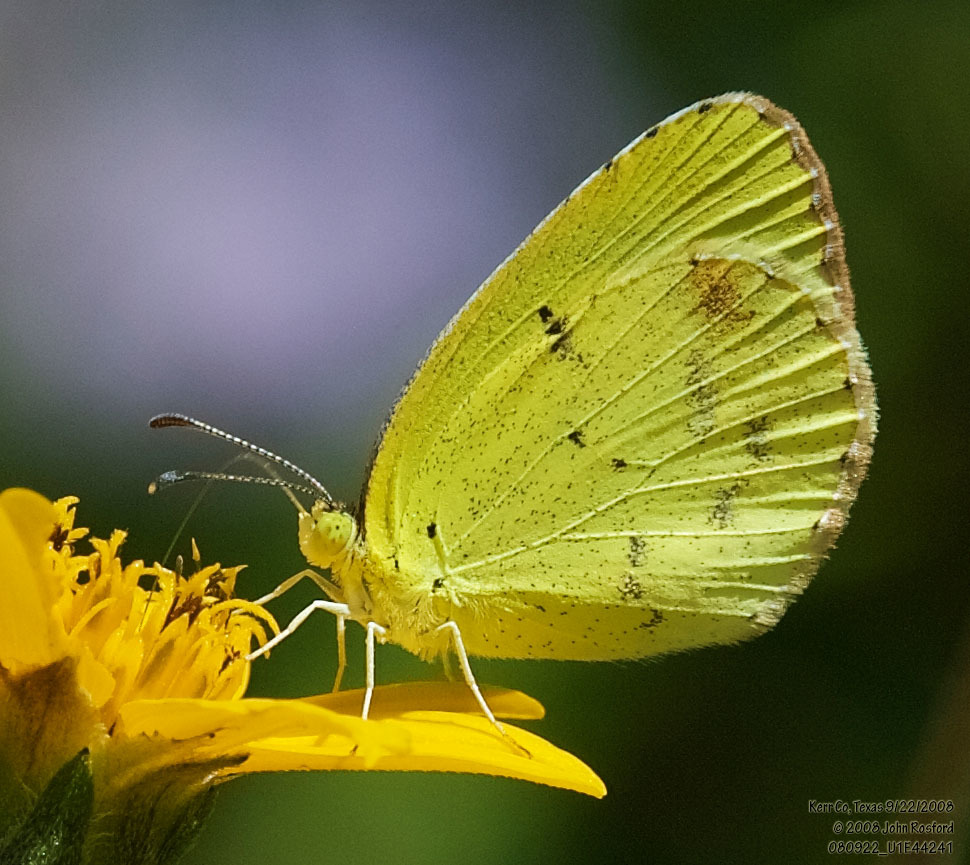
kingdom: Animalia
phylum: Arthropoda
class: Insecta
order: Lepidoptera
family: Pieridae
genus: Pyrisitia
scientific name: Pyrisitia lisa
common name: Little yellow
